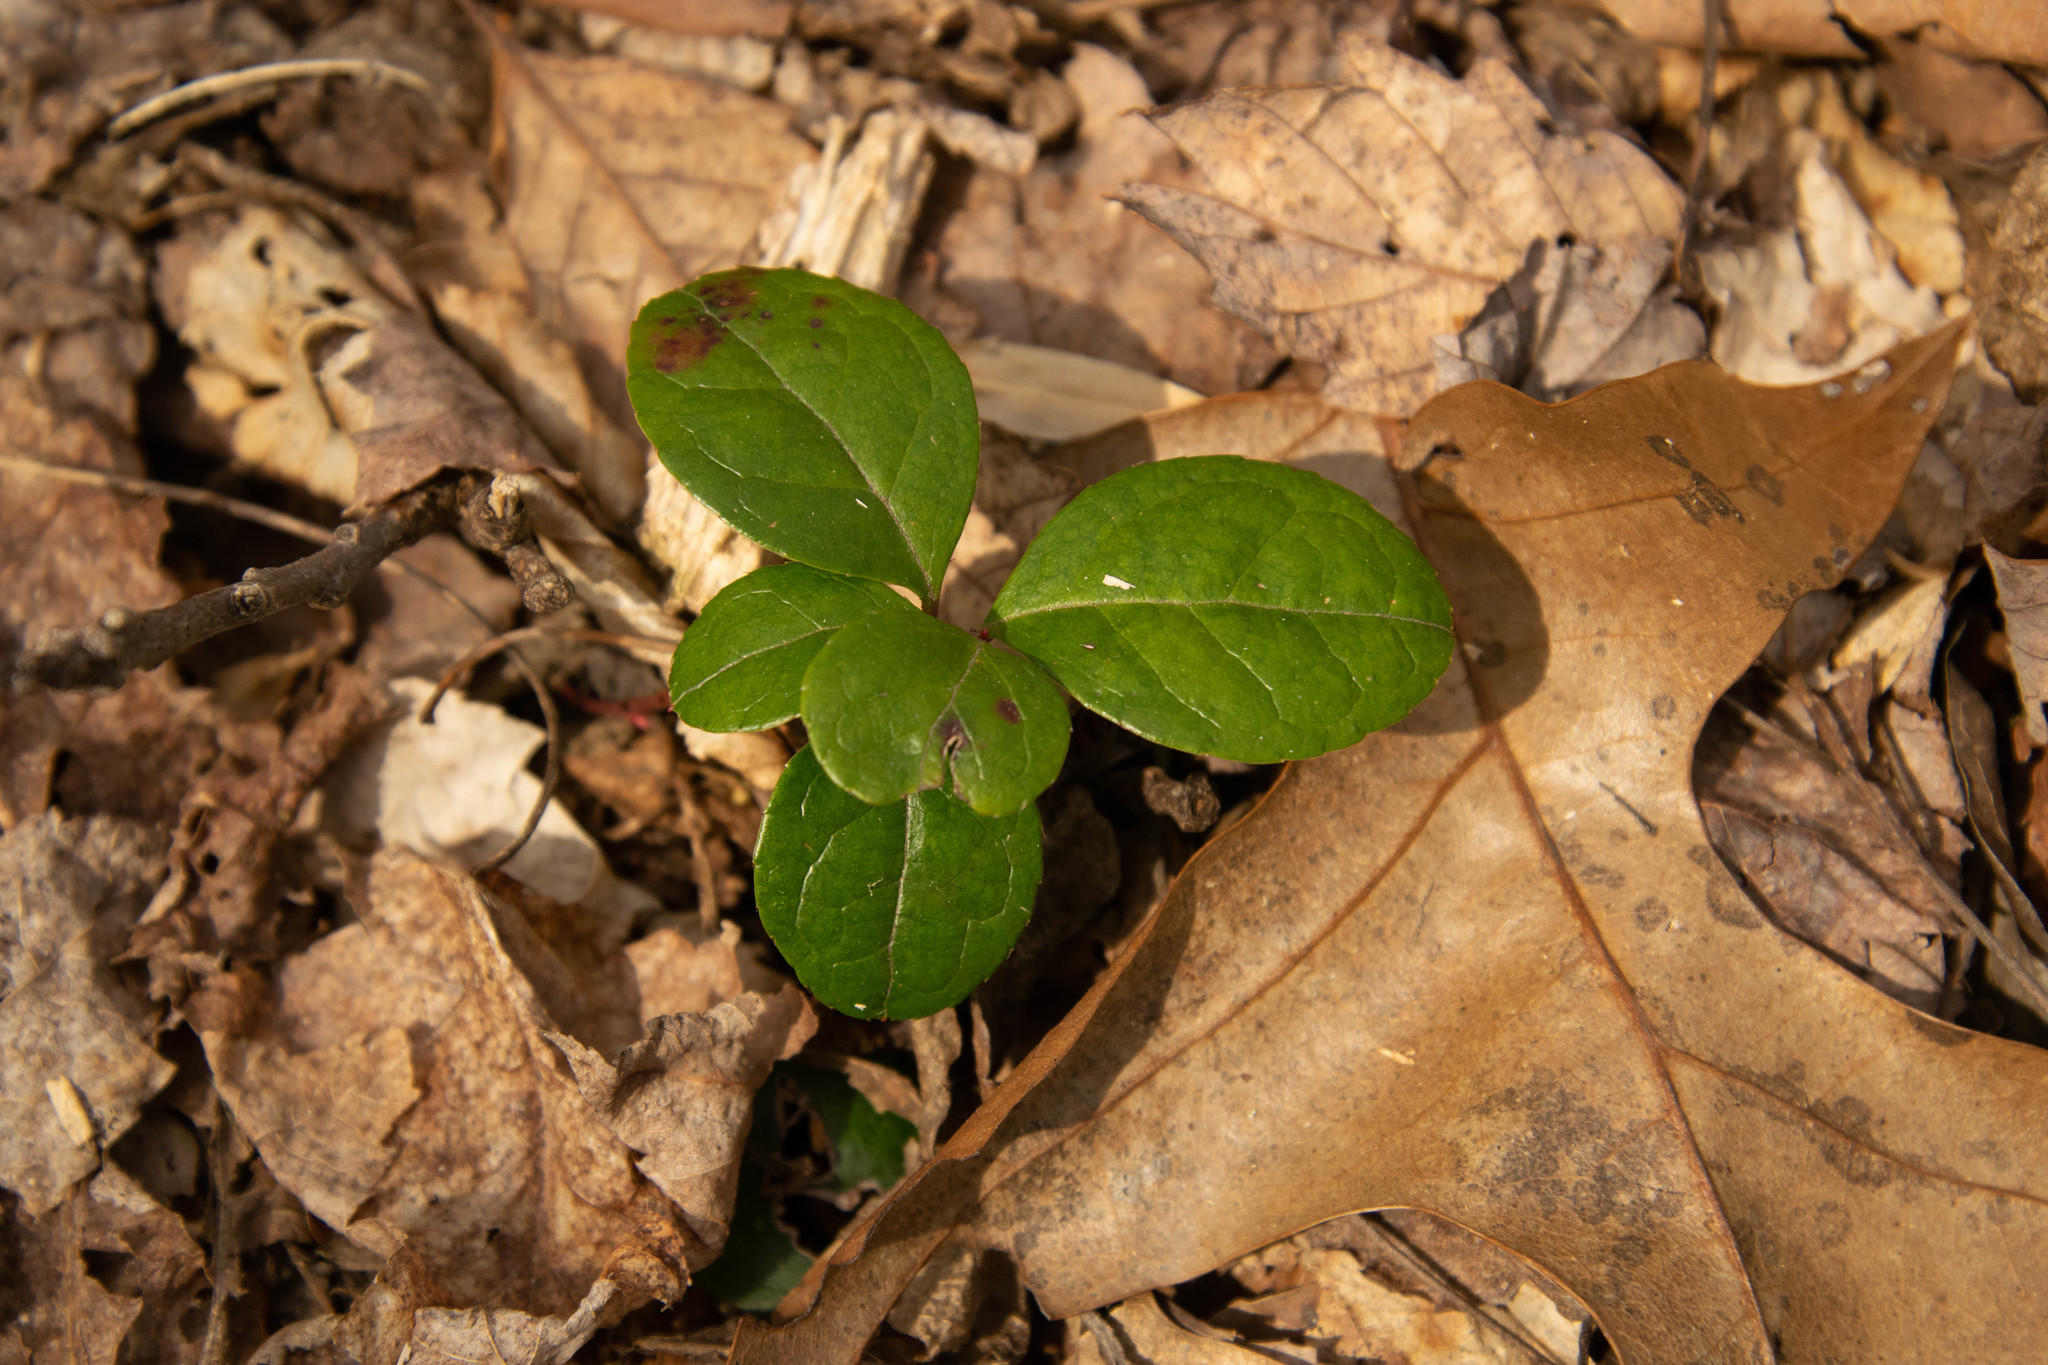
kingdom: Plantae
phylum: Tracheophyta
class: Magnoliopsida
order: Ericales
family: Ericaceae
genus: Gaultheria
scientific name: Gaultheria procumbens
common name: Checkerberry
